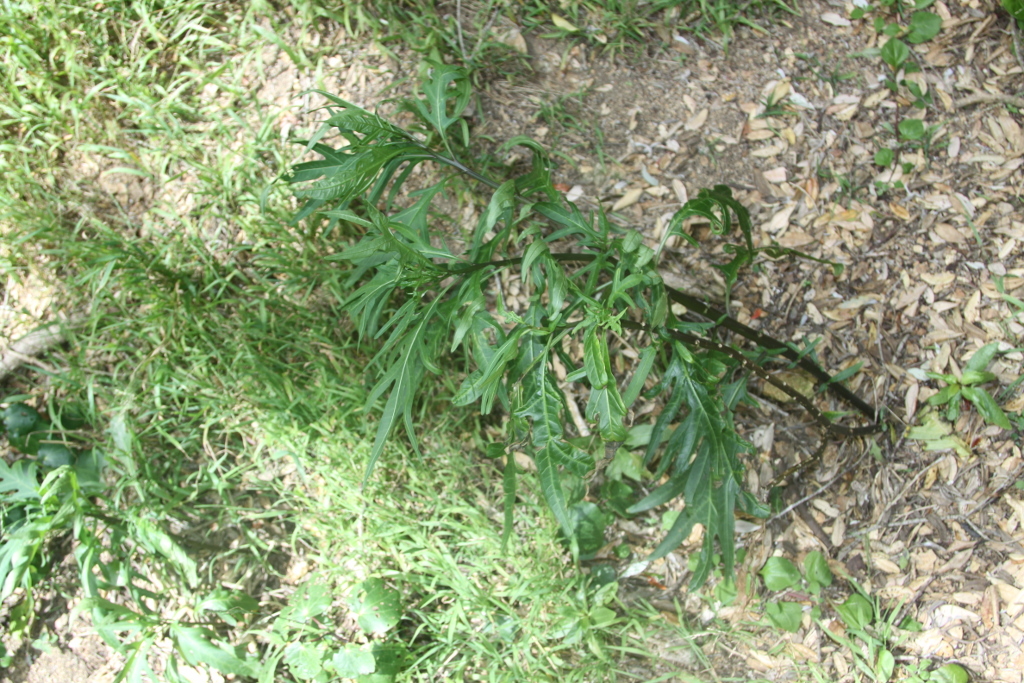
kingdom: Plantae
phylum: Tracheophyta
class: Magnoliopsida
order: Solanales
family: Solanaceae
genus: Solanum
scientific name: Solanum laciniatum
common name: Kangaroo-apple
